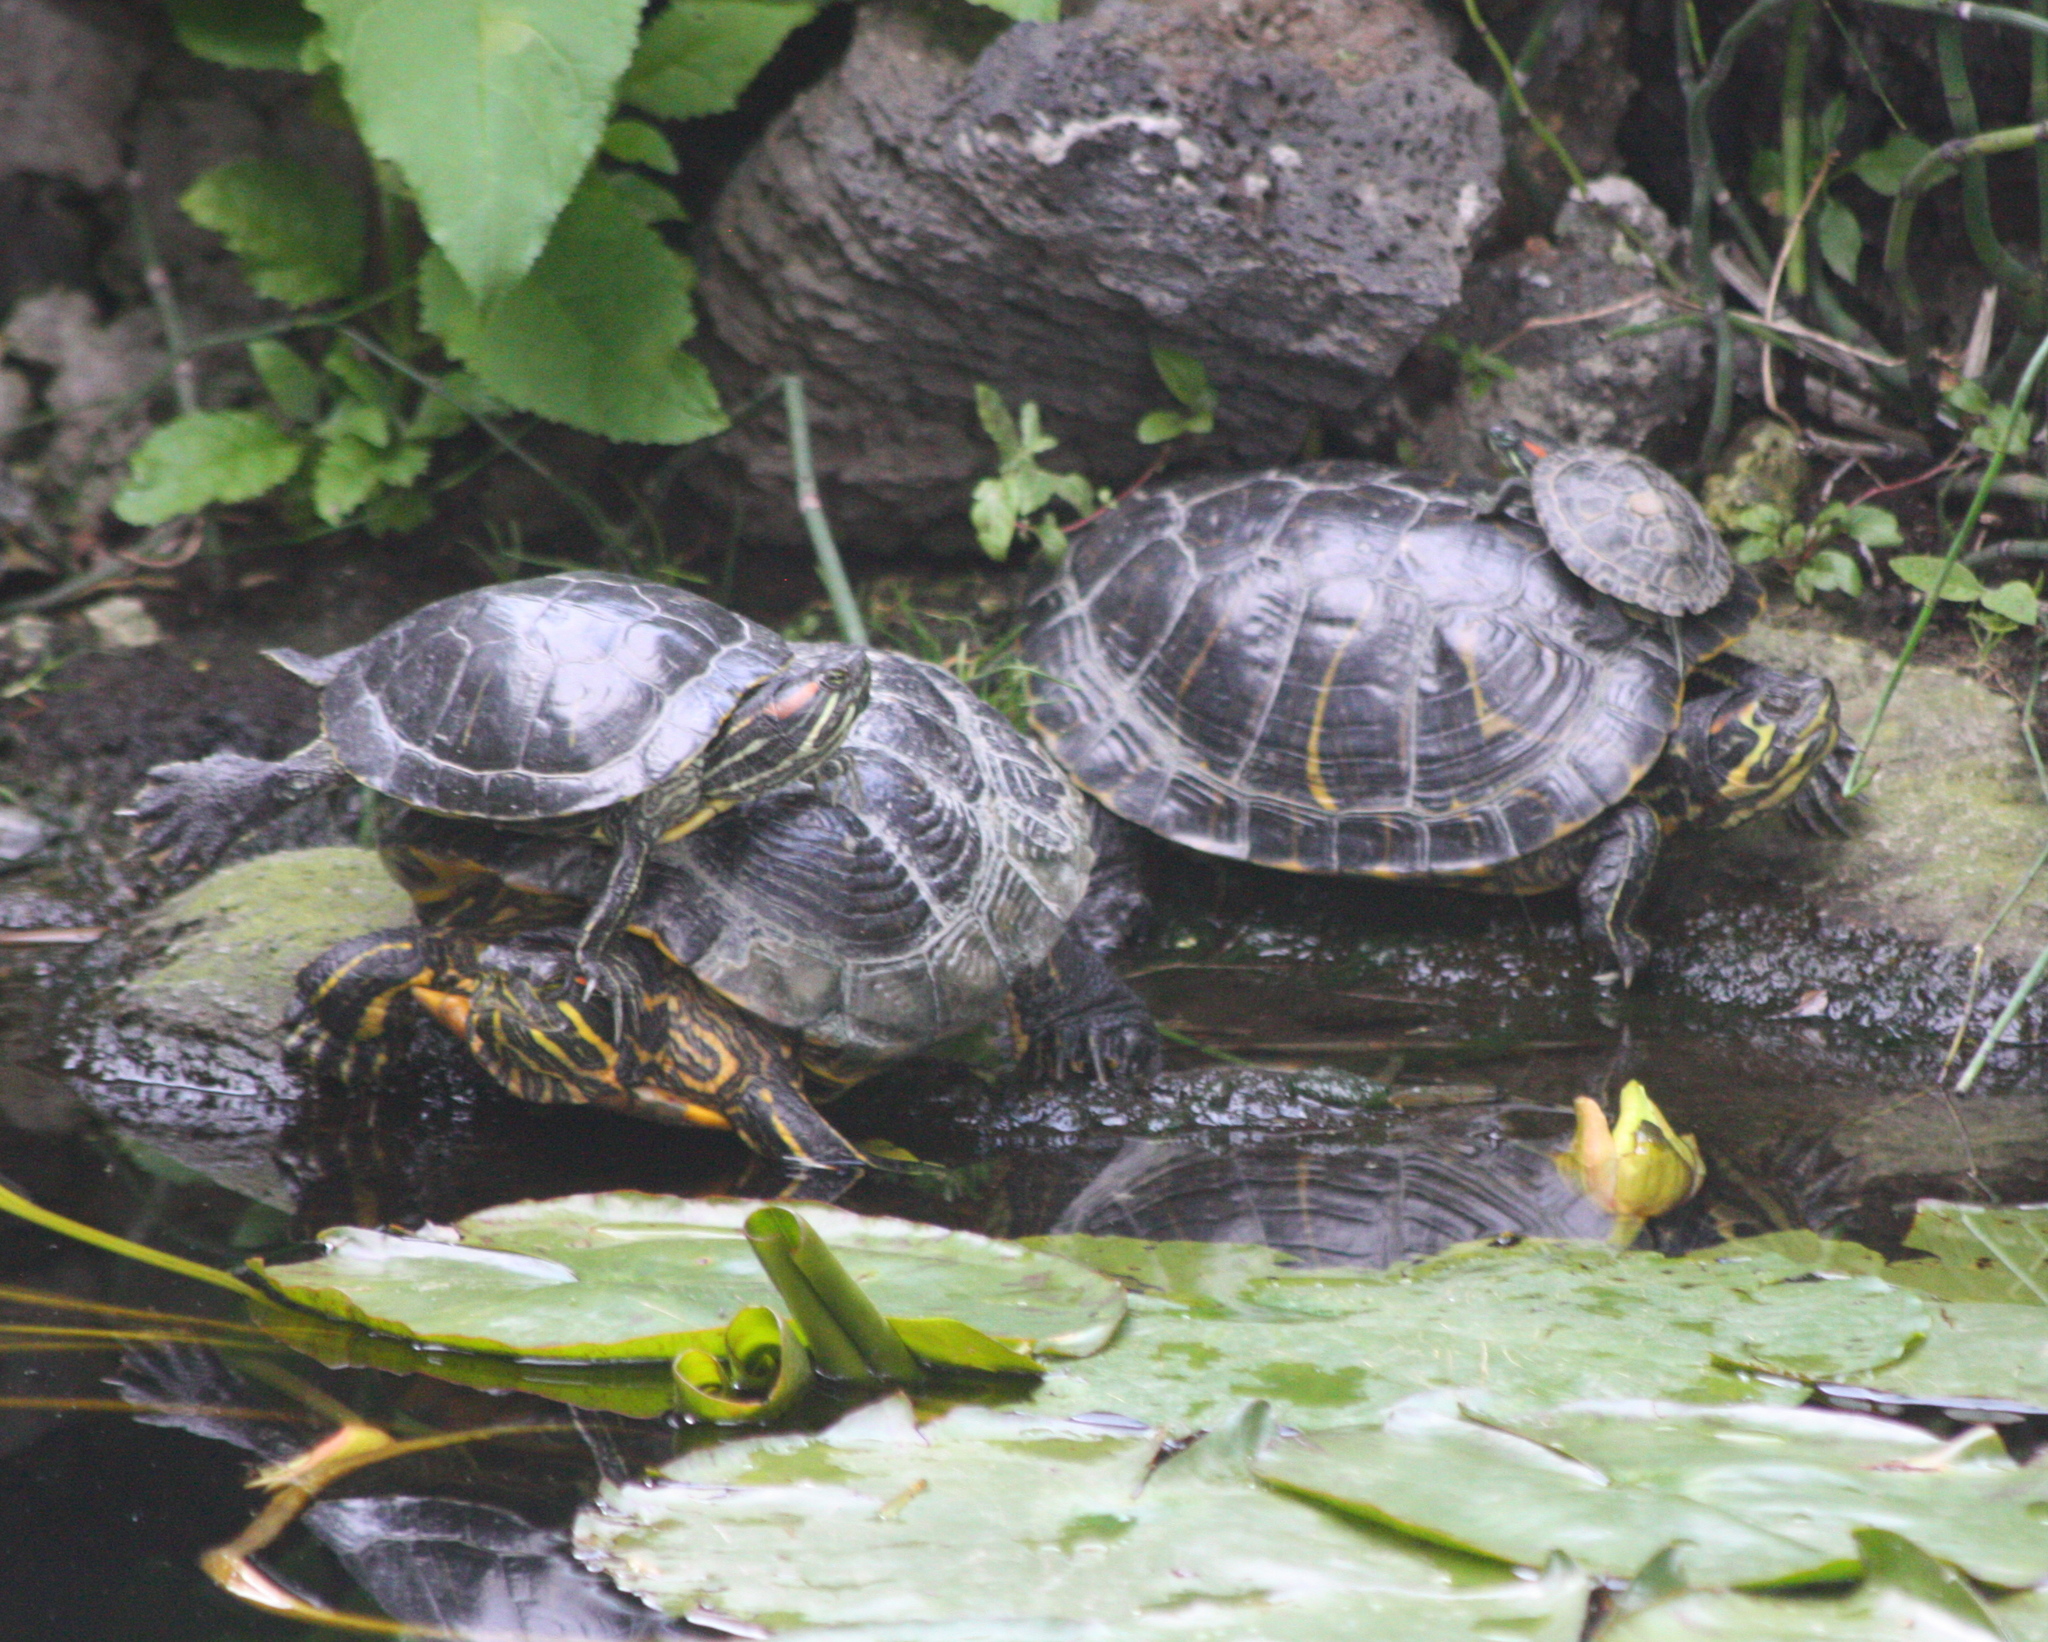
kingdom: Animalia
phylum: Chordata
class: Testudines
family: Emydidae
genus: Trachemys
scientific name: Trachemys scripta
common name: Slider
